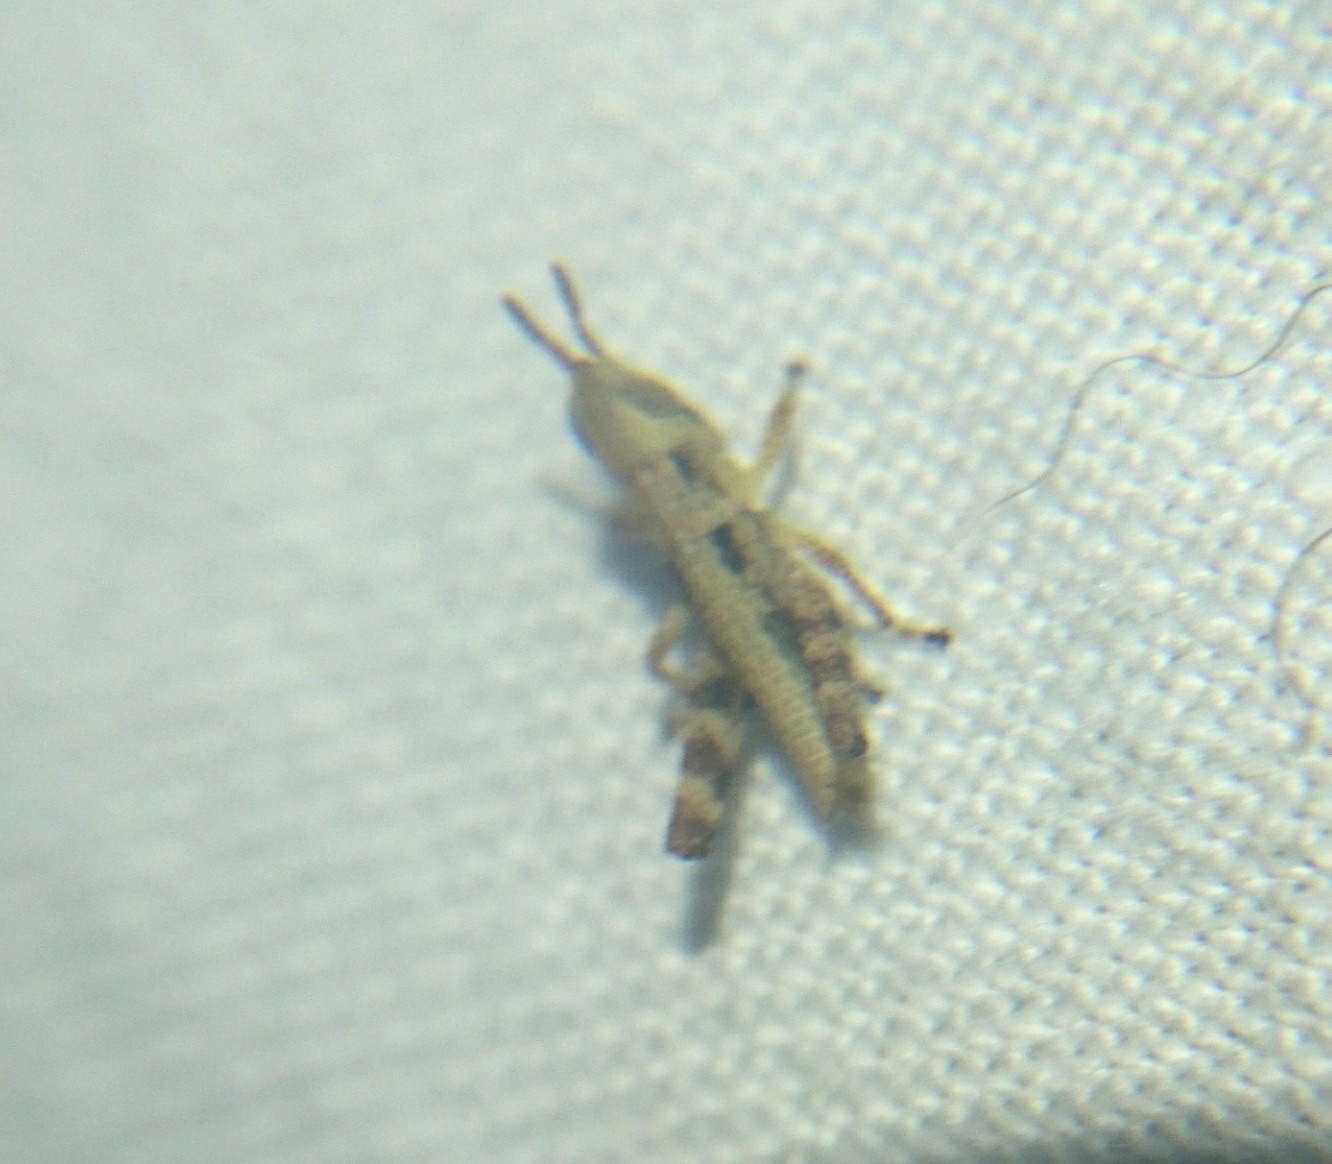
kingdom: Animalia
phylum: Arthropoda
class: Insecta
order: Orthoptera
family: Acrididae
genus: Dichromorpha
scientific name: Dichromorpha viridis
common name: Short-winged green grasshopper
